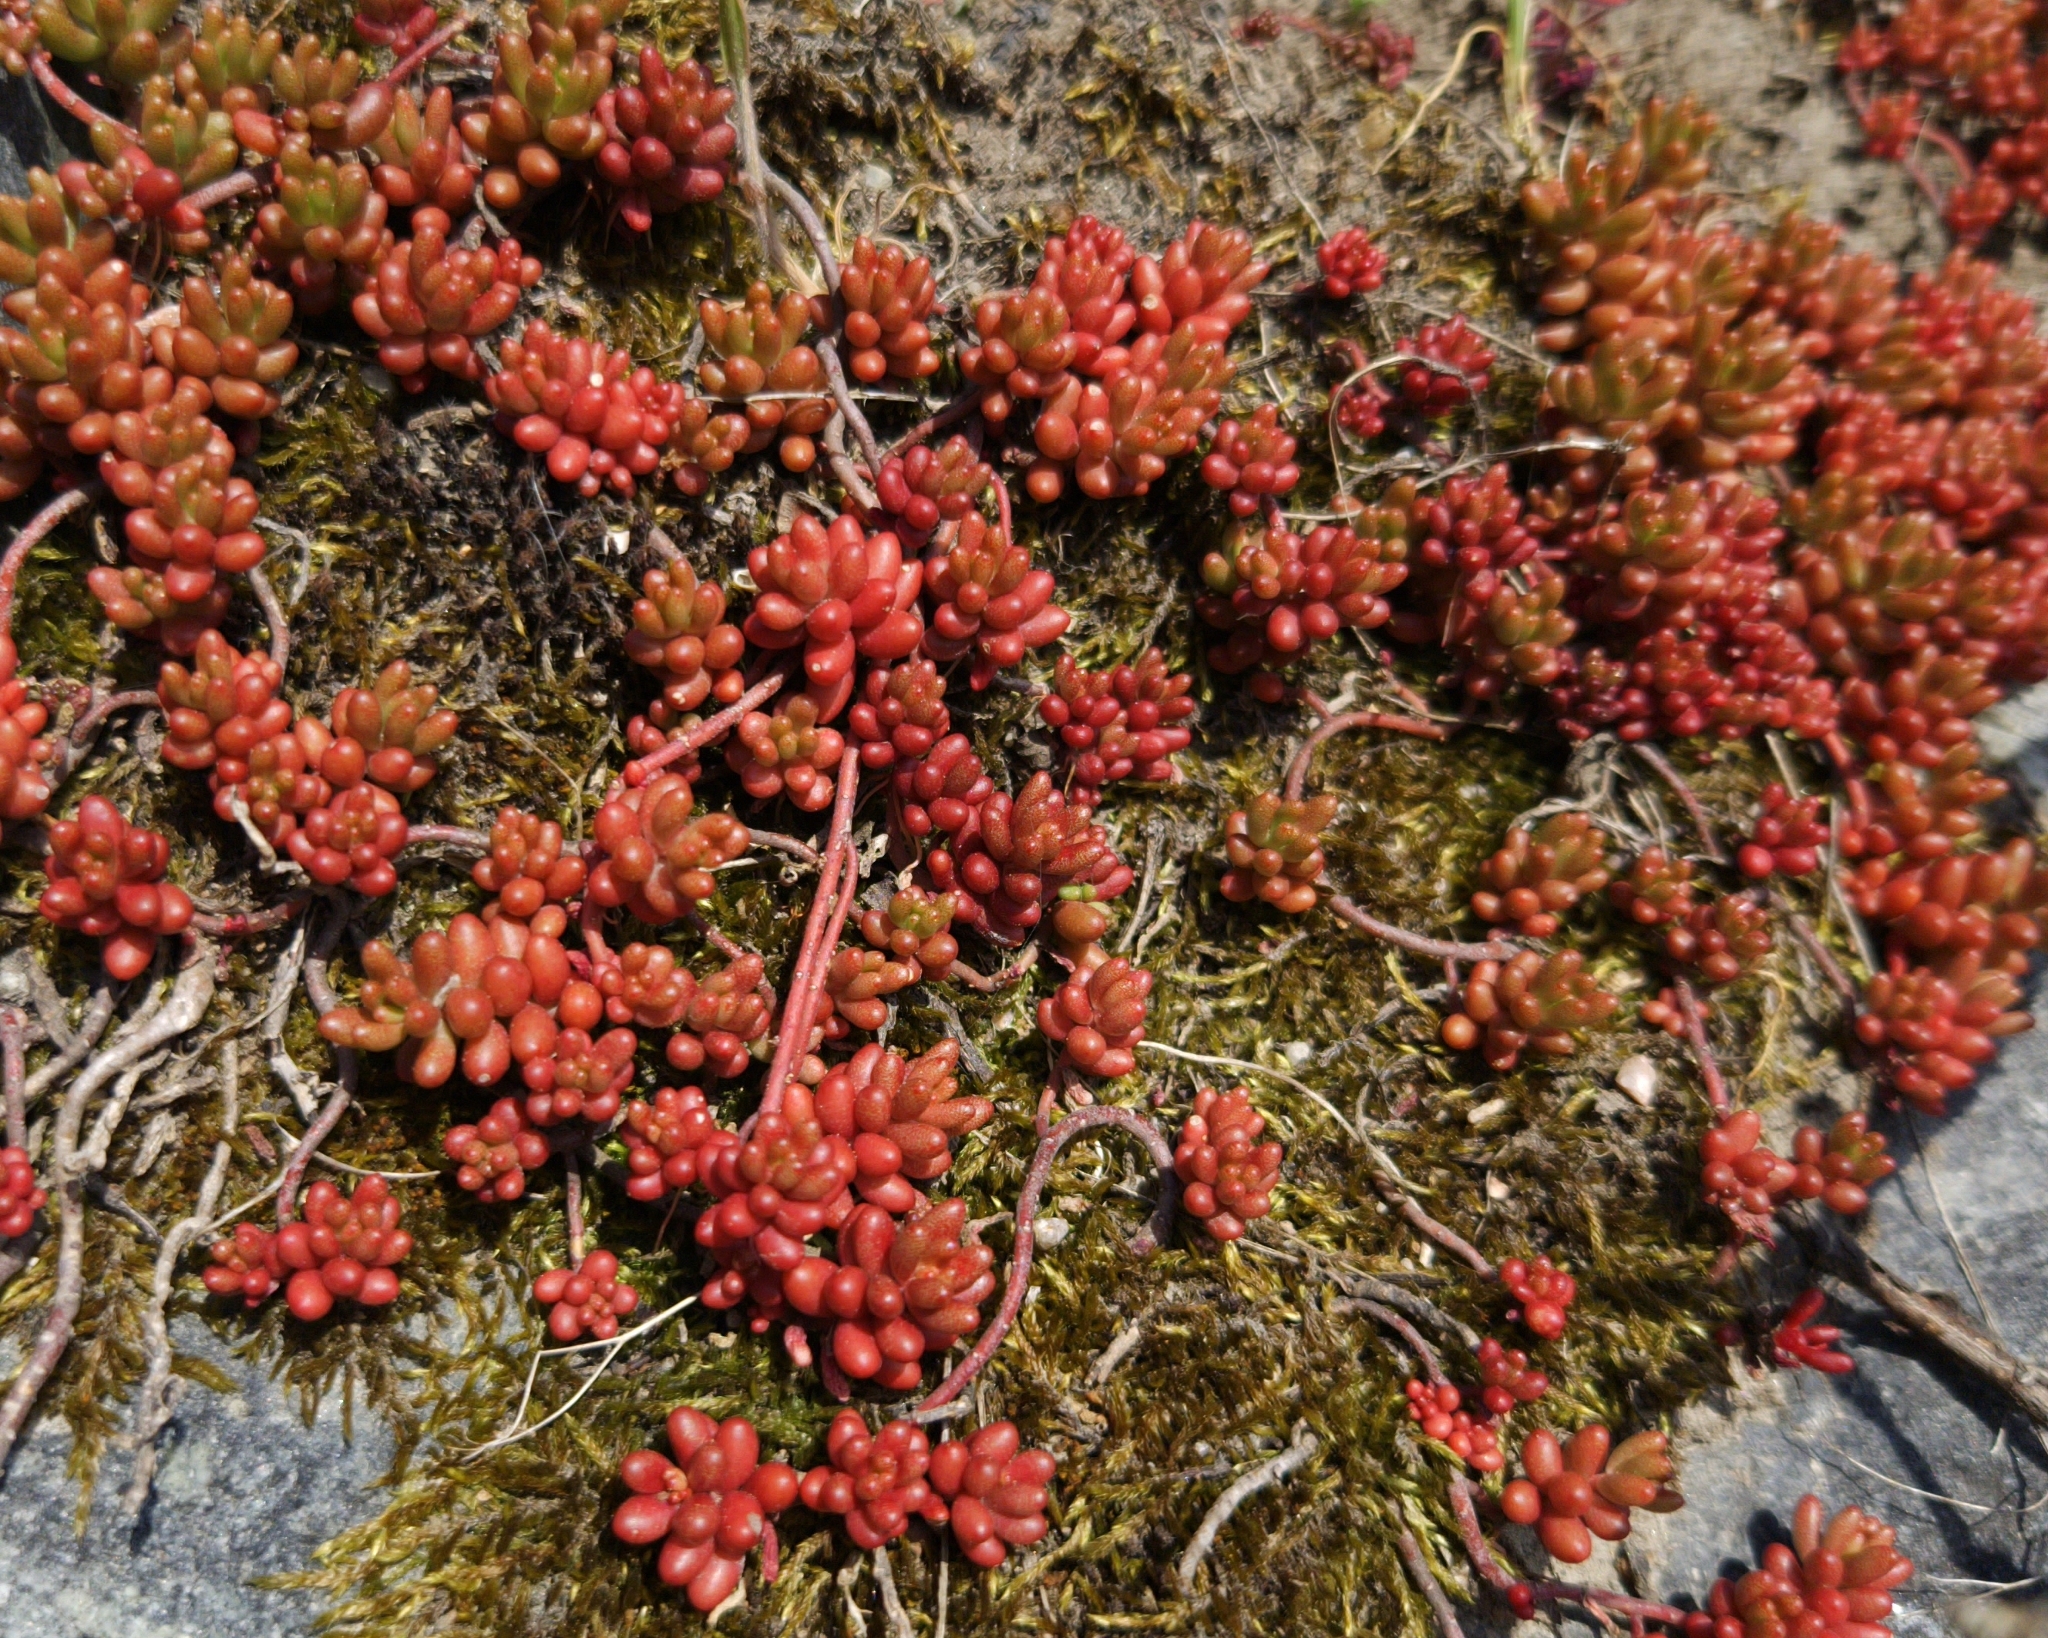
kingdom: Plantae
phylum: Tracheophyta
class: Magnoliopsida
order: Saxifragales
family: Crassulaceae
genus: Sedum
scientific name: Sedum album
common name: White stonecrop
